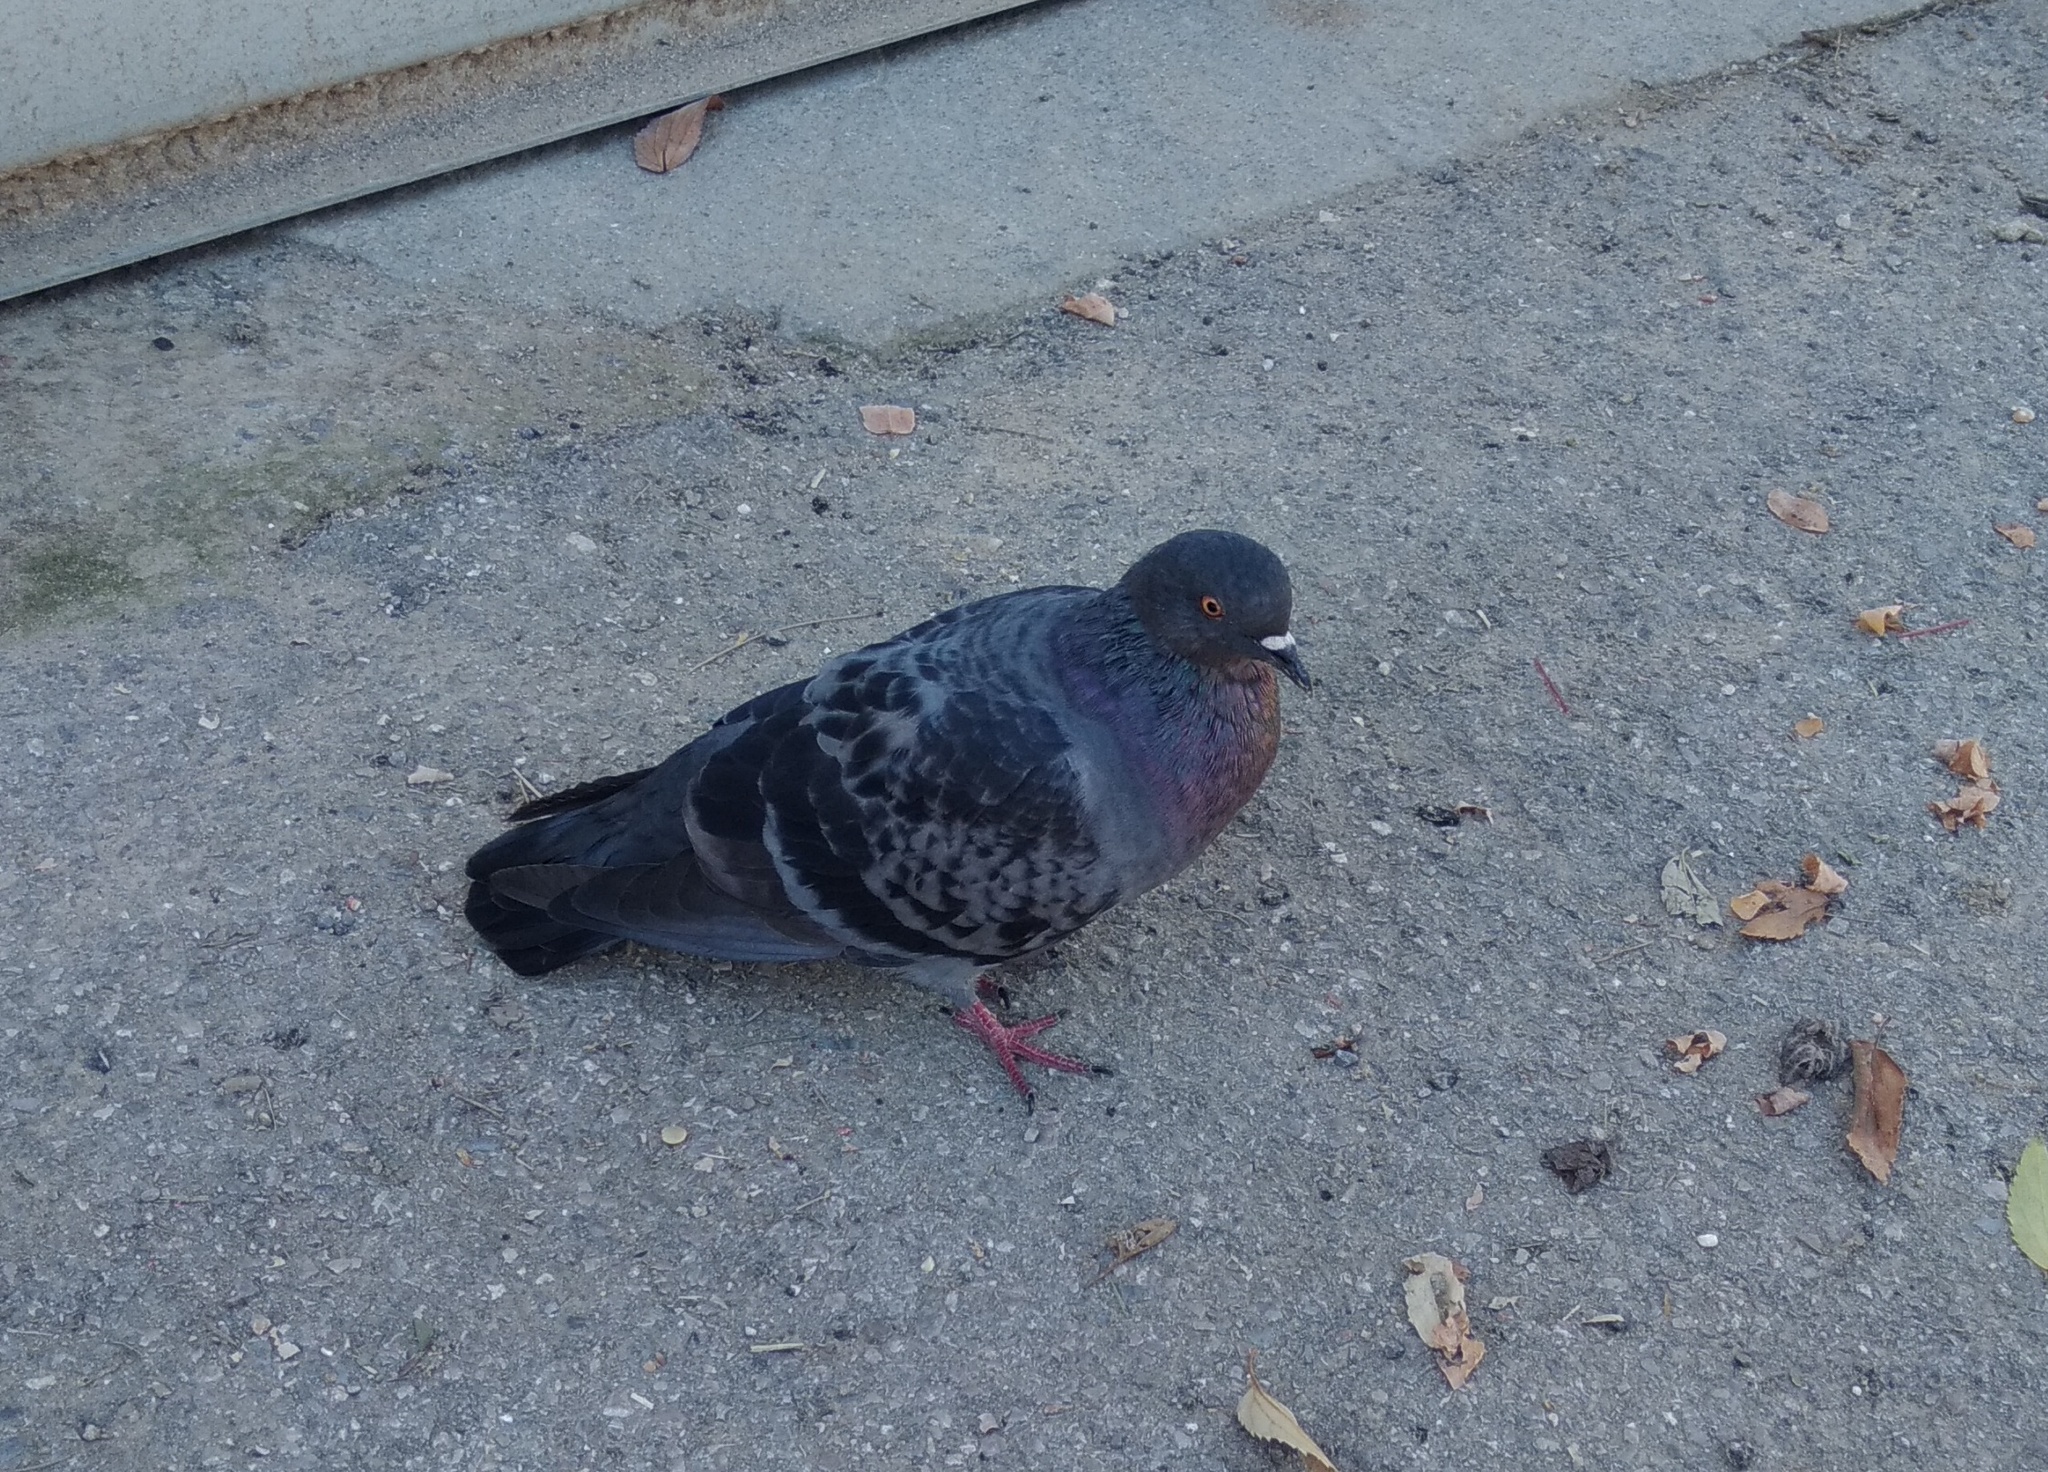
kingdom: Animalia
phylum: Chordata
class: Aves
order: Columbiformes
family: Columbidae
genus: Columba
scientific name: Columba livia
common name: Rock pigeon
